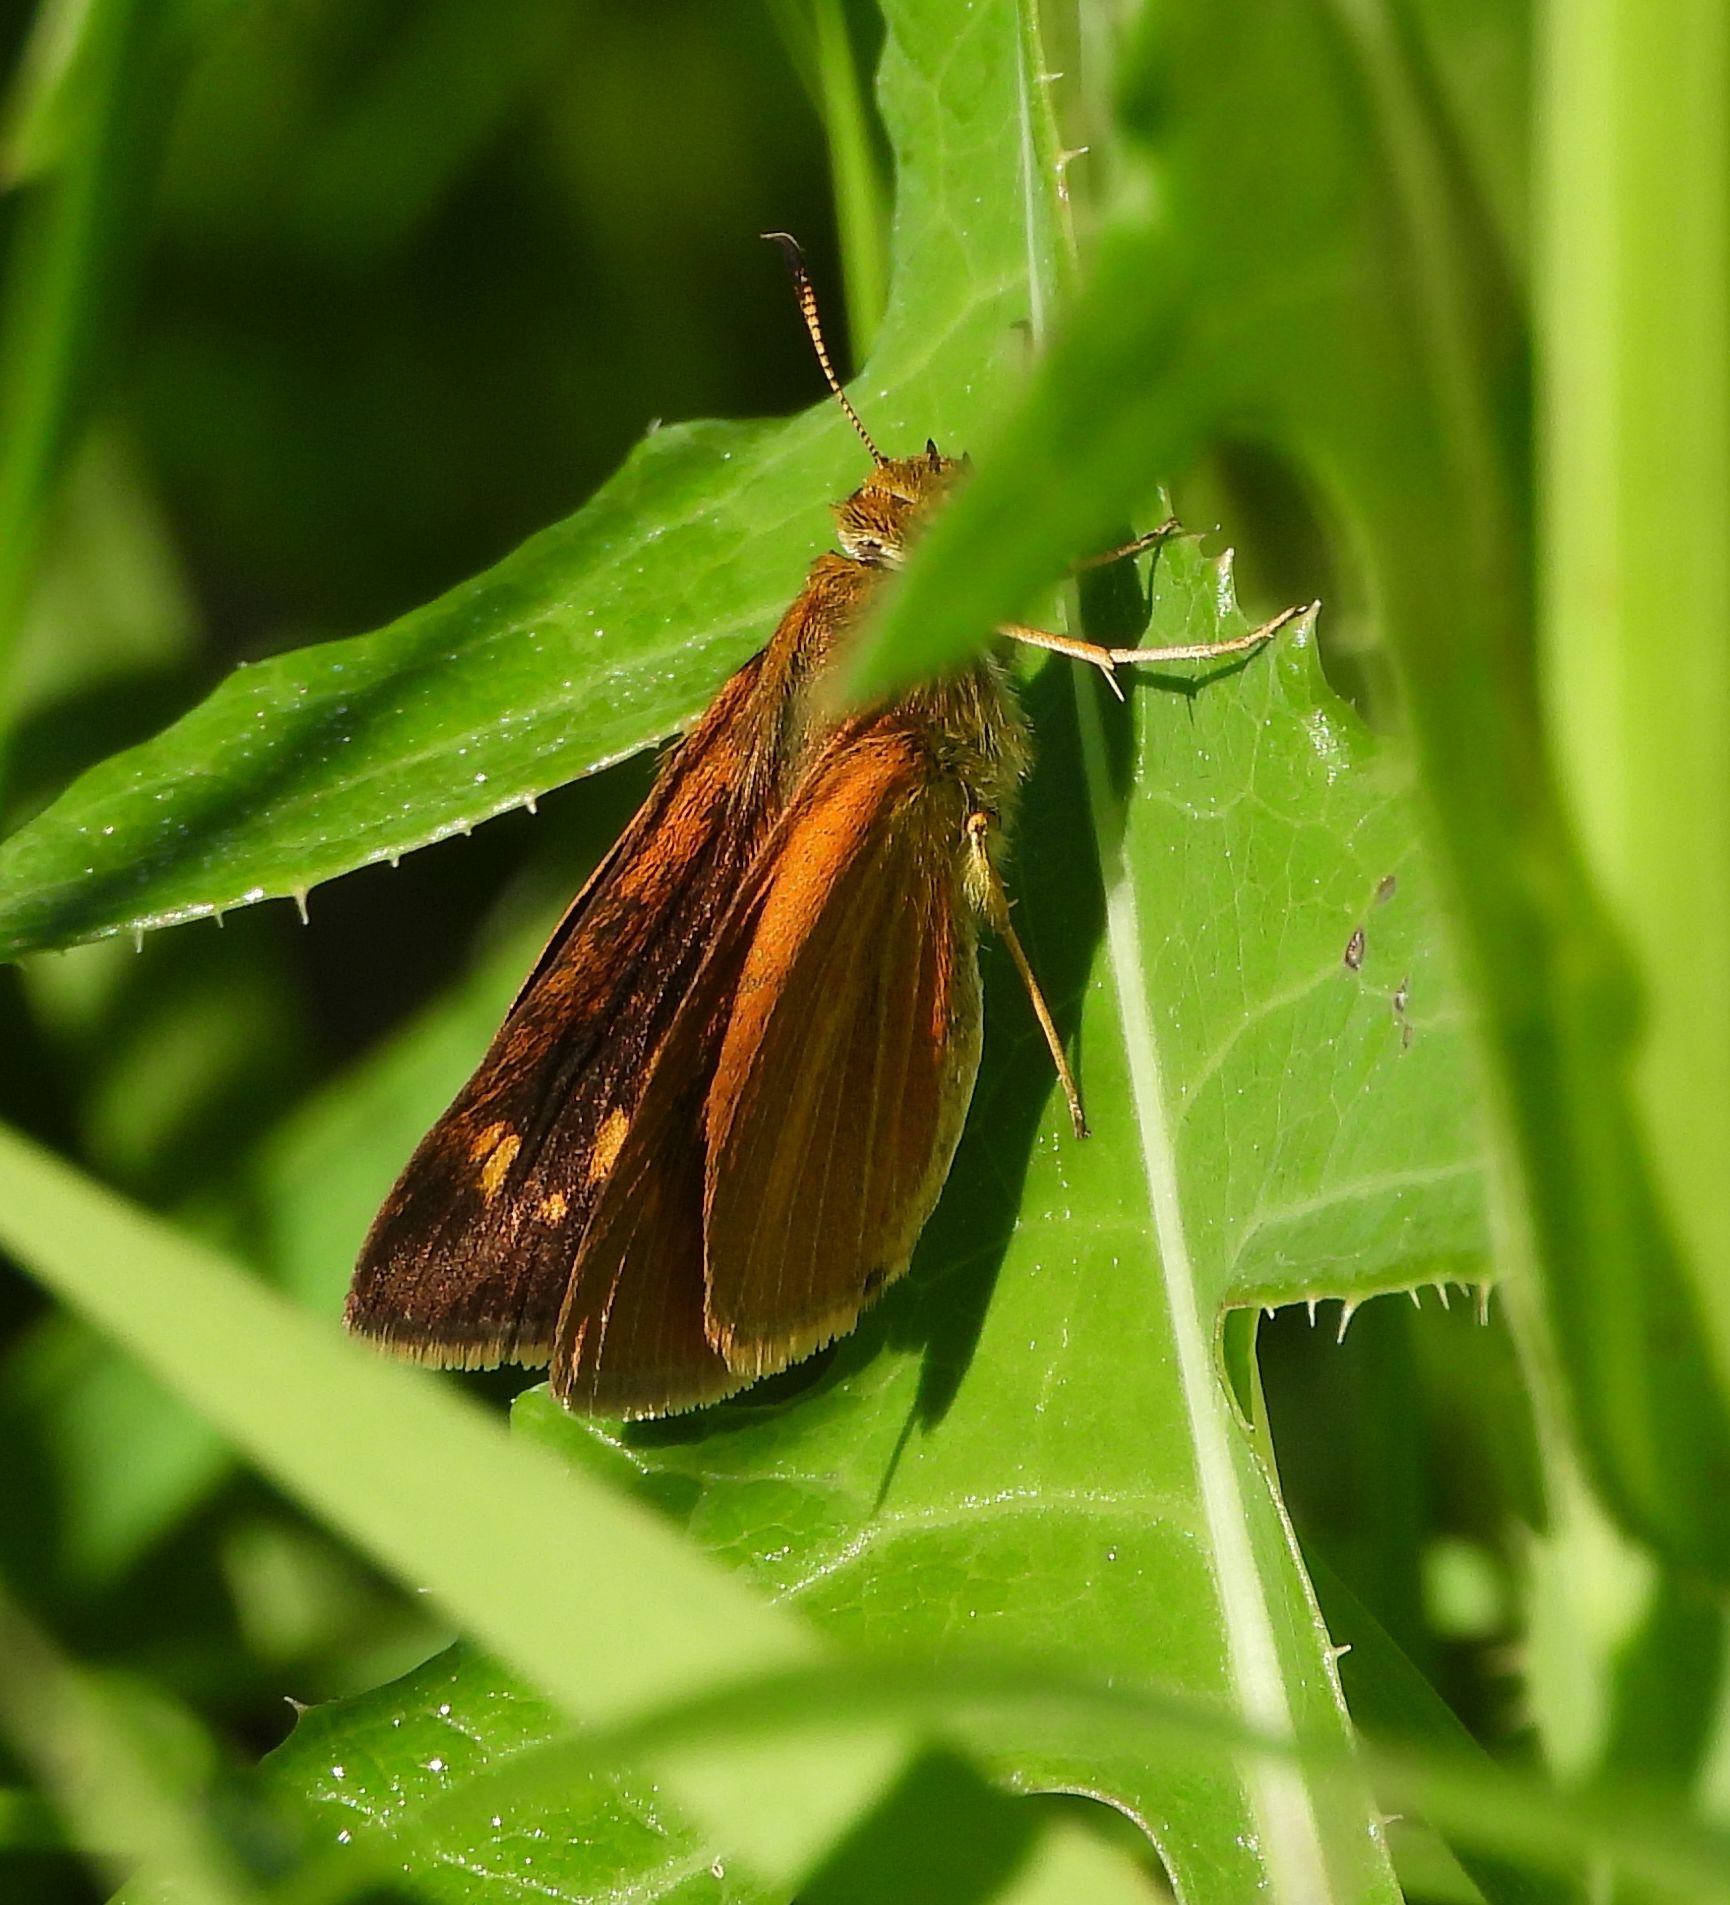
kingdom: Animalia
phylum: Arthropoda
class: Insecta
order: Lepidoptera
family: Hesperiidae
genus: Euphyes
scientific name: Euphyes dion
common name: Dion skipper
